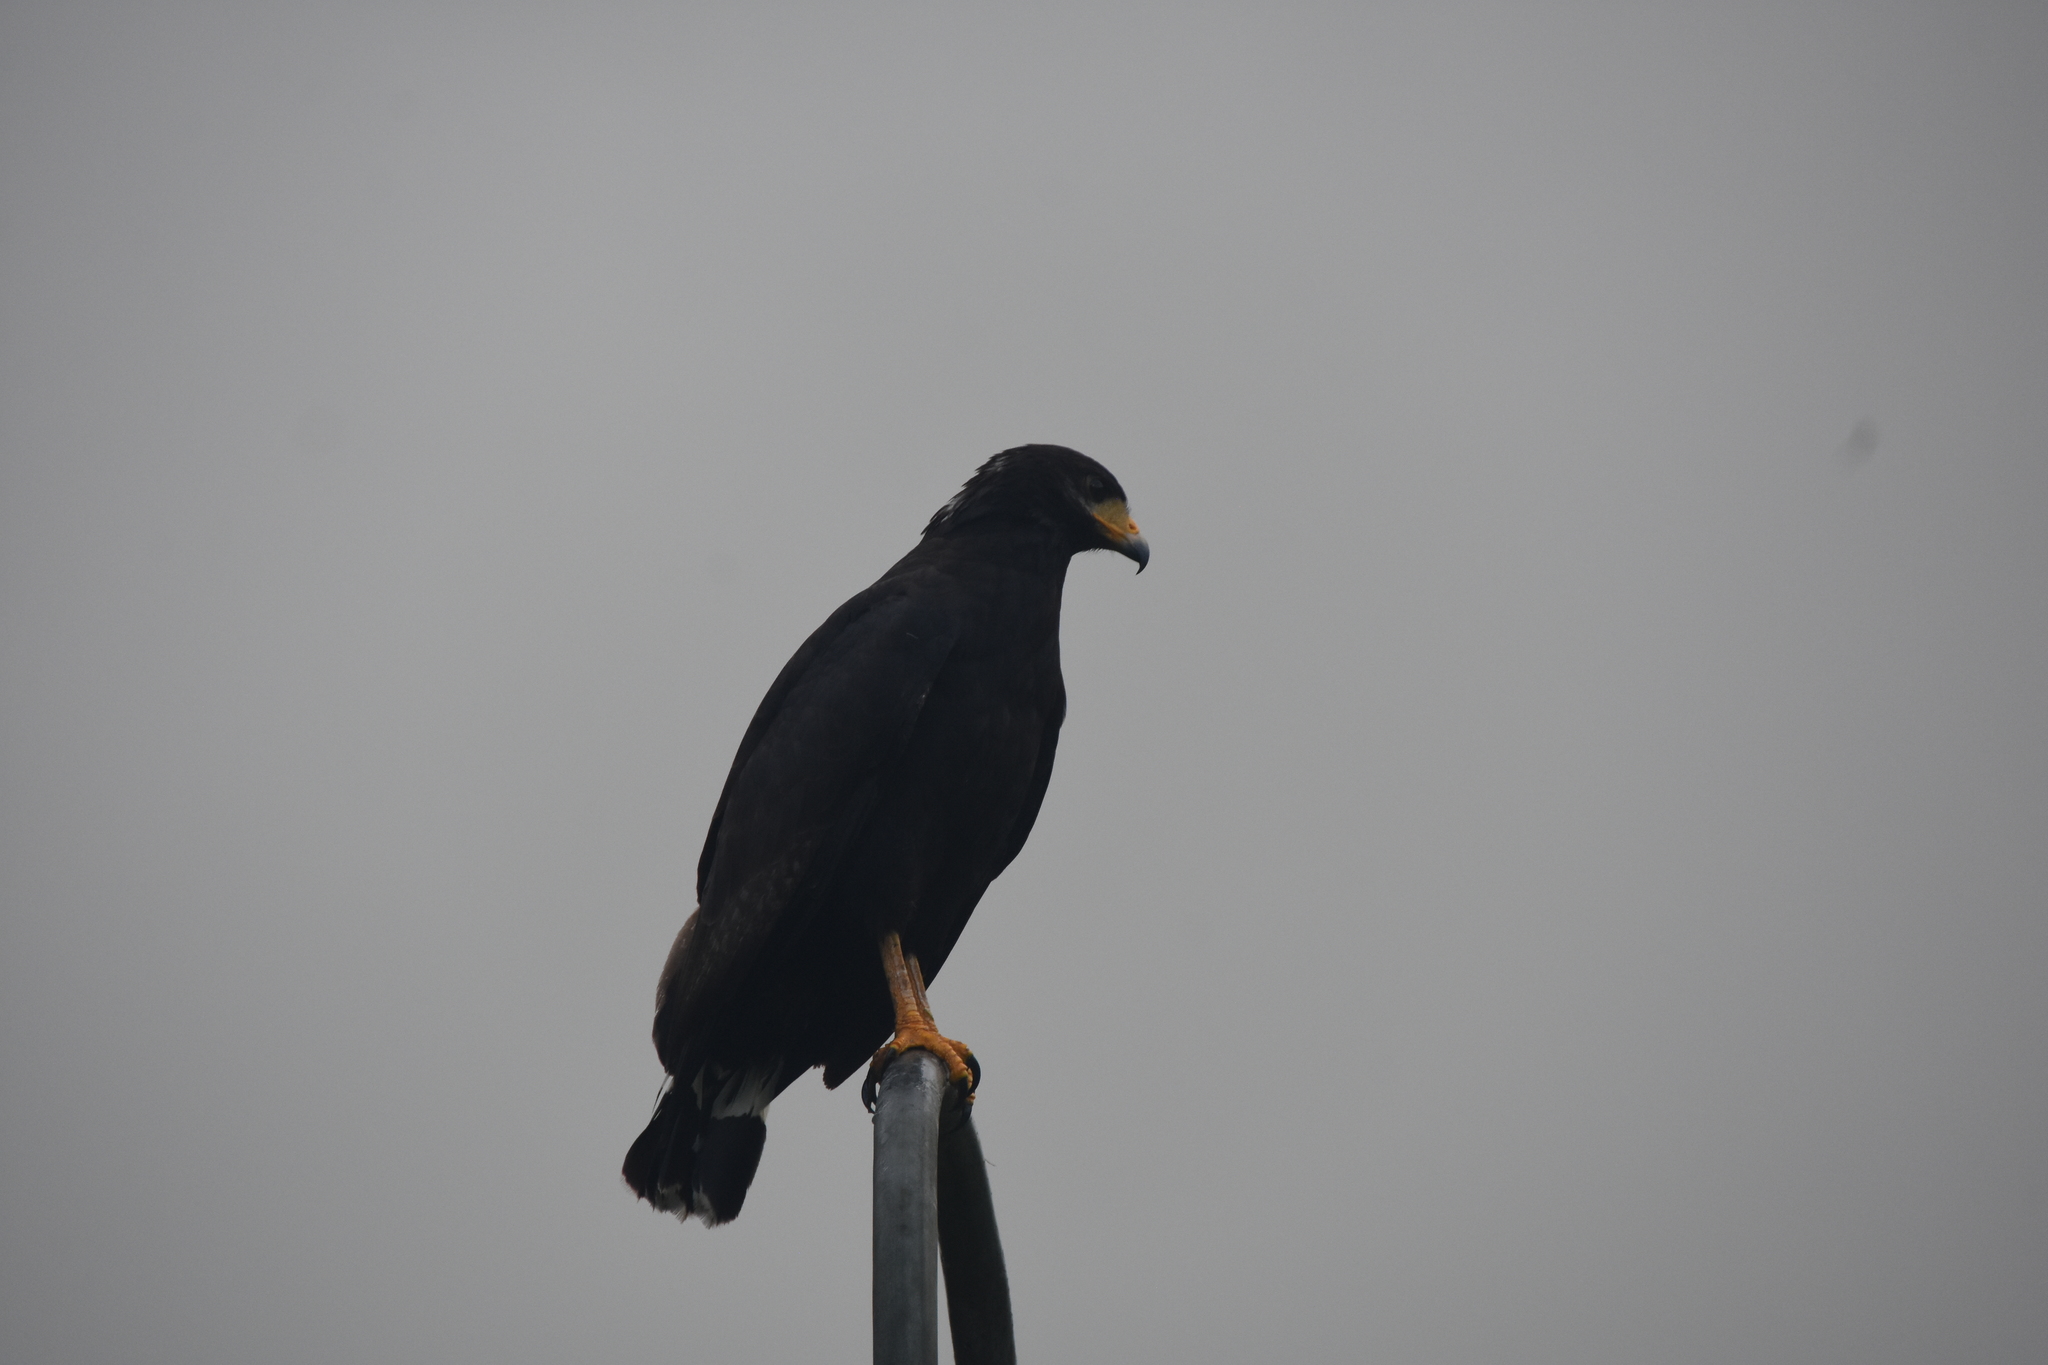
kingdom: Animalia
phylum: Chordata
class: Aves
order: Accipitriformes
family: Accipitridae
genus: Buteogallus
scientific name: Buteogallus anthracinus
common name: Common black hawk
